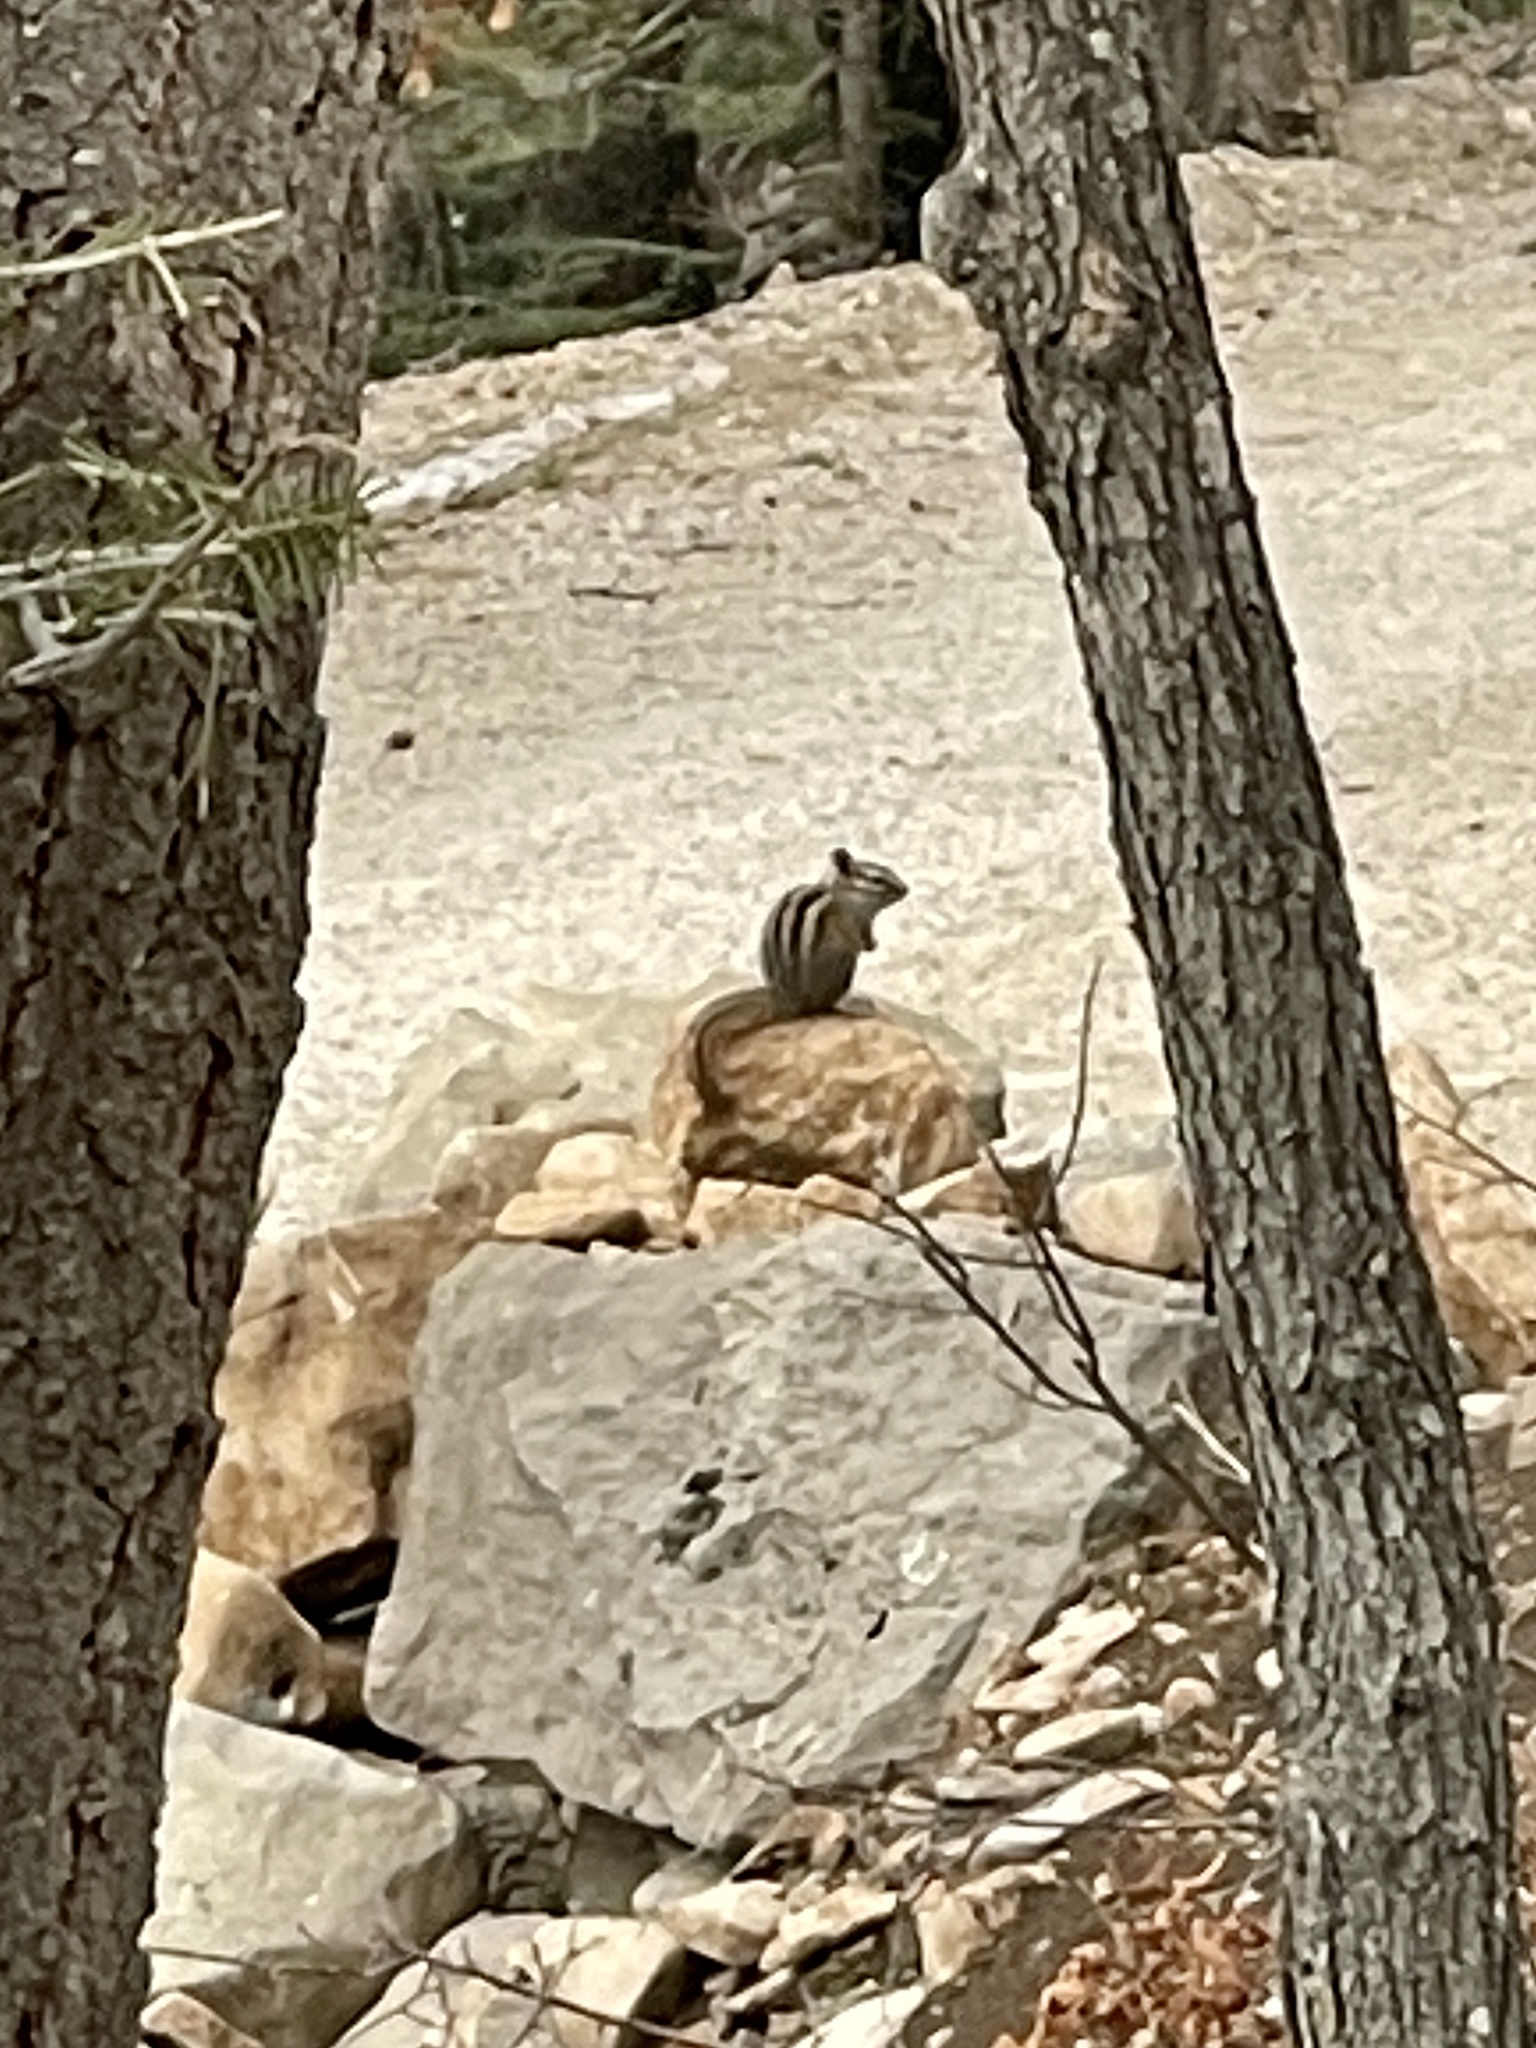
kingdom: Animalia
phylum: Chordata
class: Mammalia
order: Rodentia
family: Sciuridae
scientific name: Sciuridae
